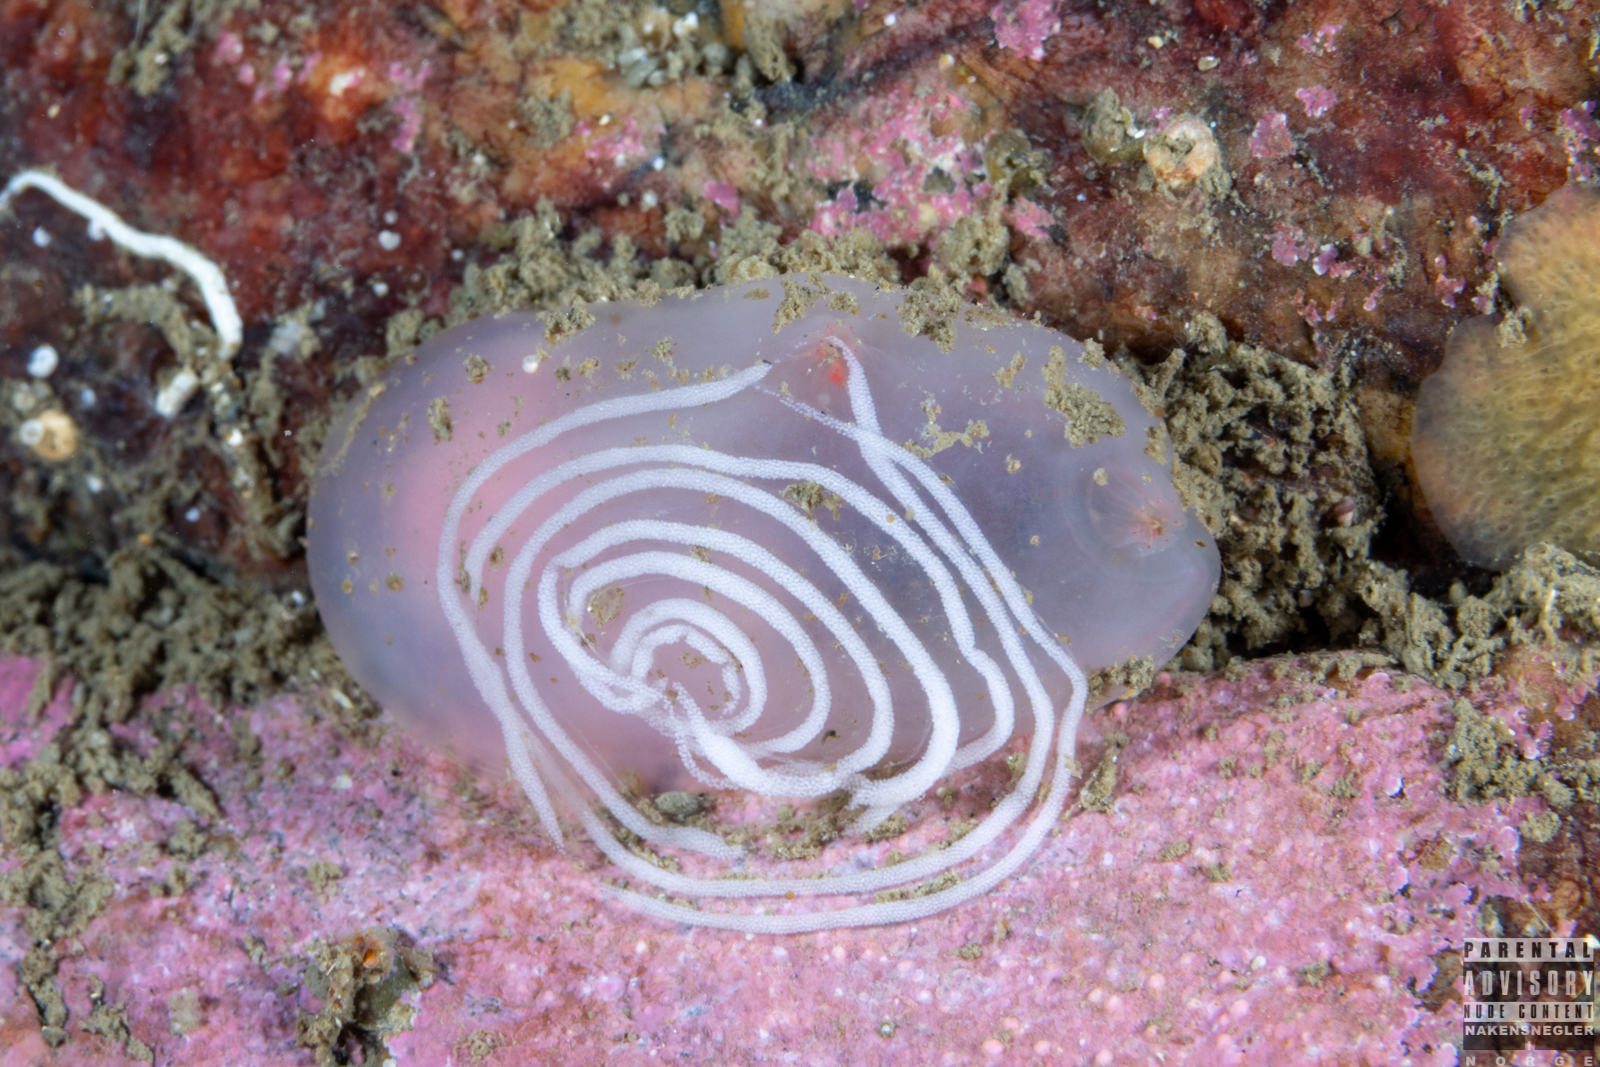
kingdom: Animalia
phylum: Mollusca
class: Gastropoda
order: Nudibranchia
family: Coryphellidae
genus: Coryphella
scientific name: Coryphella verrucosa
